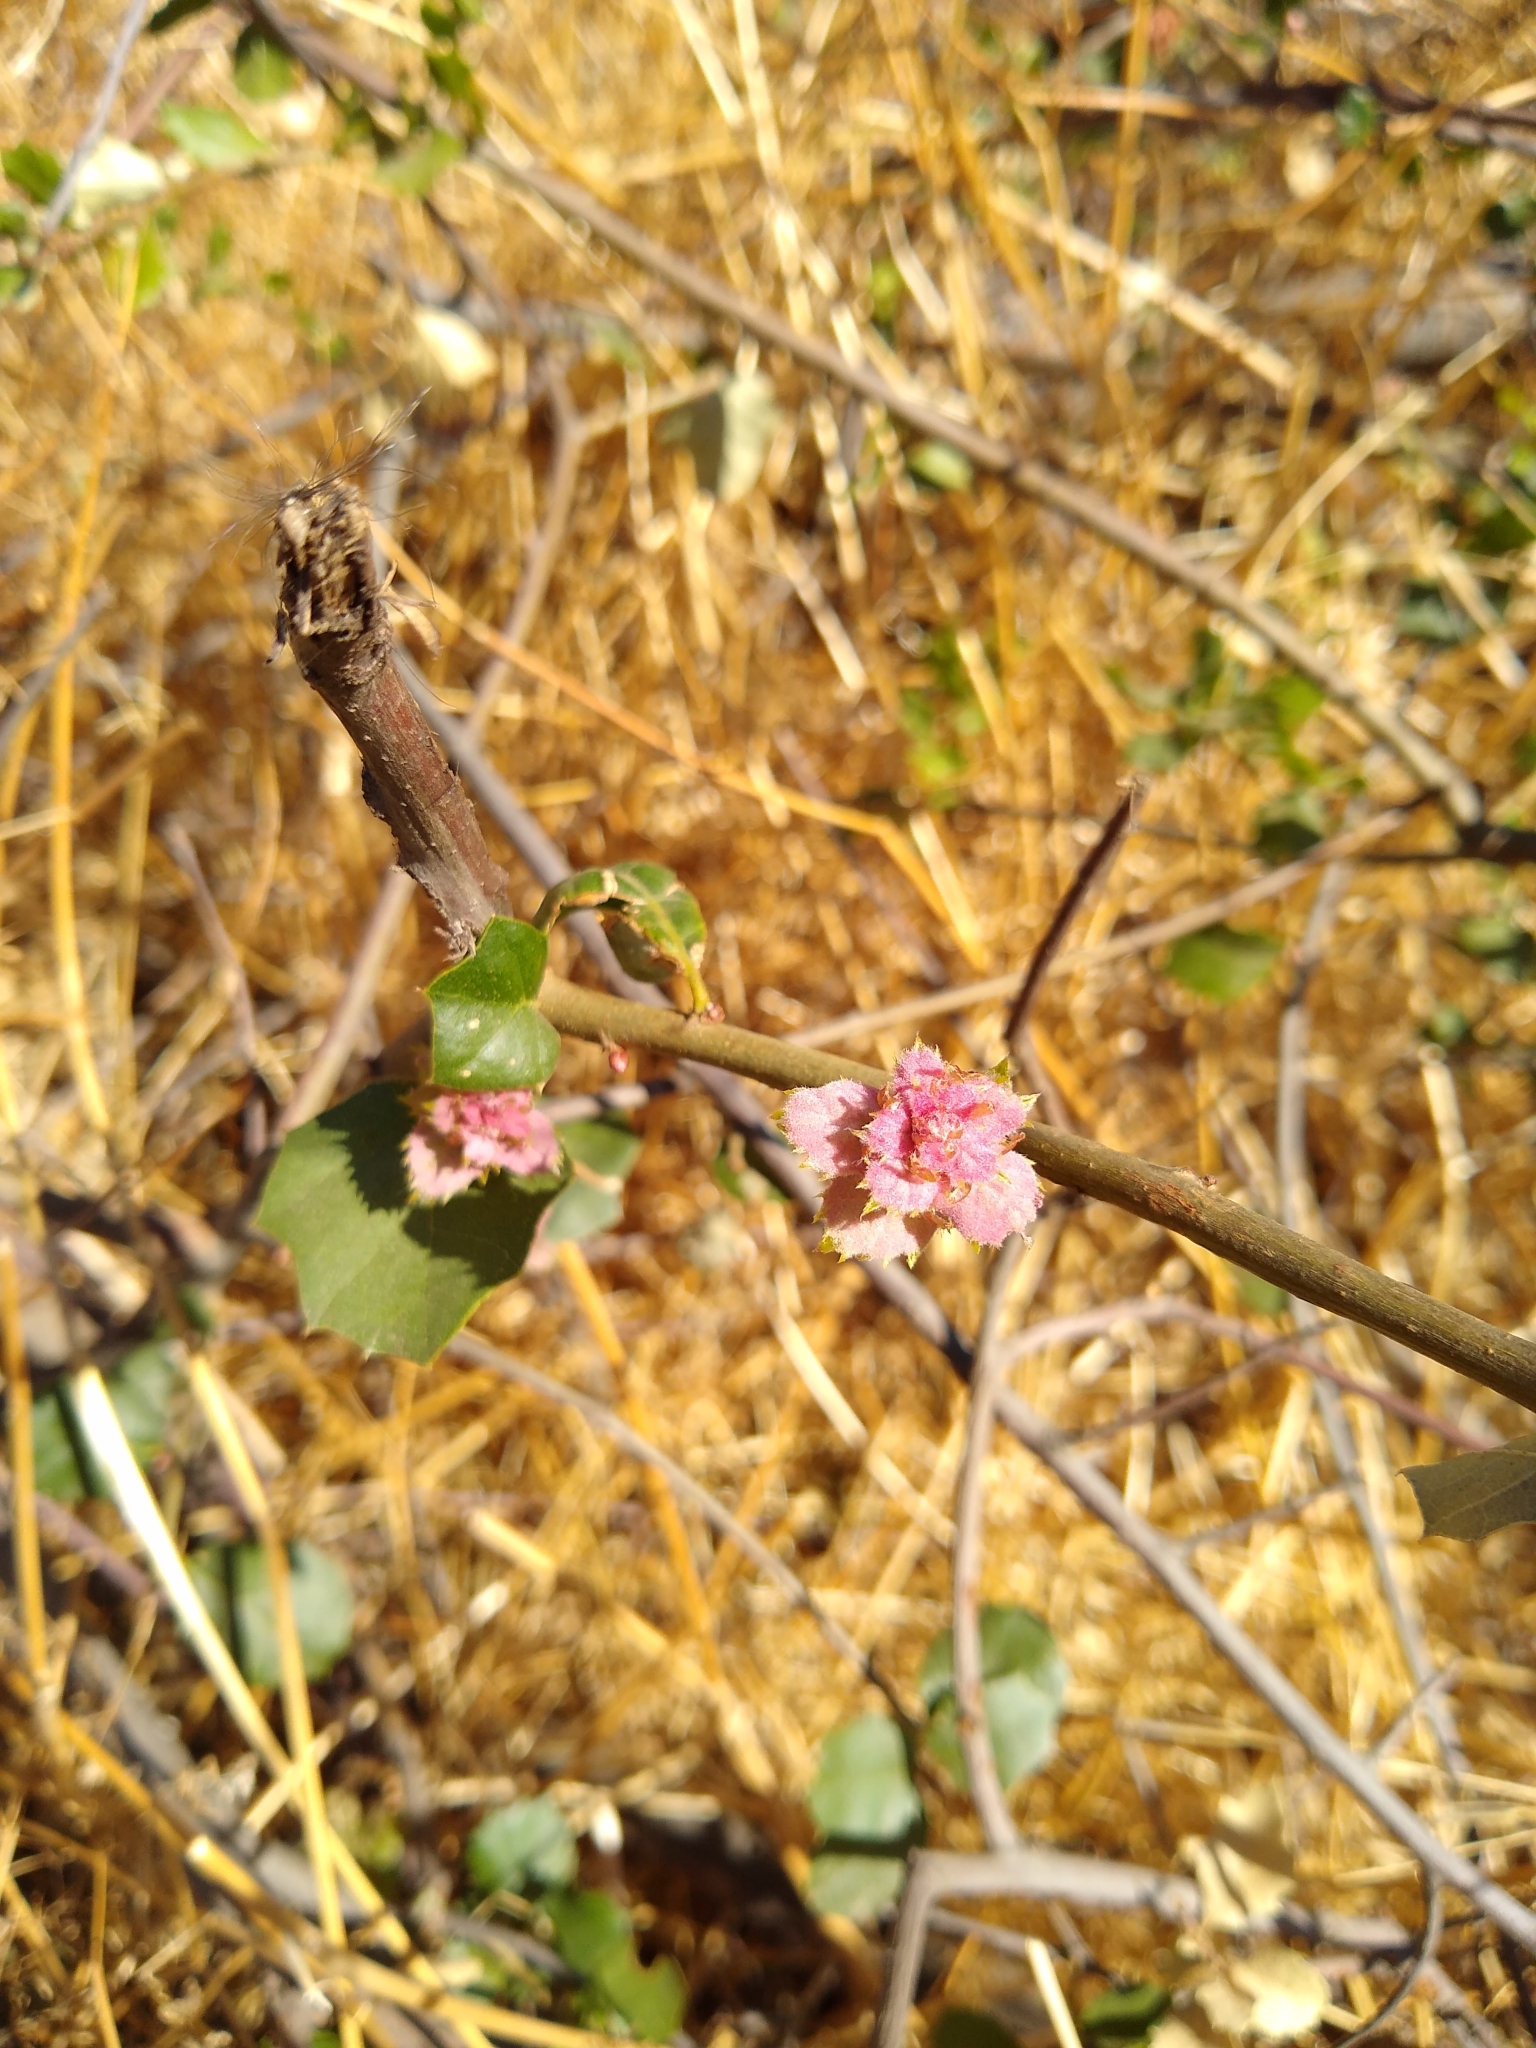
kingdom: Plantae
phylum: Tracheophyta
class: Magnoliopsida
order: Fagales
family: Fagaceae
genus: Quercus
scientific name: Quercus agrifolia
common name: California live oak
